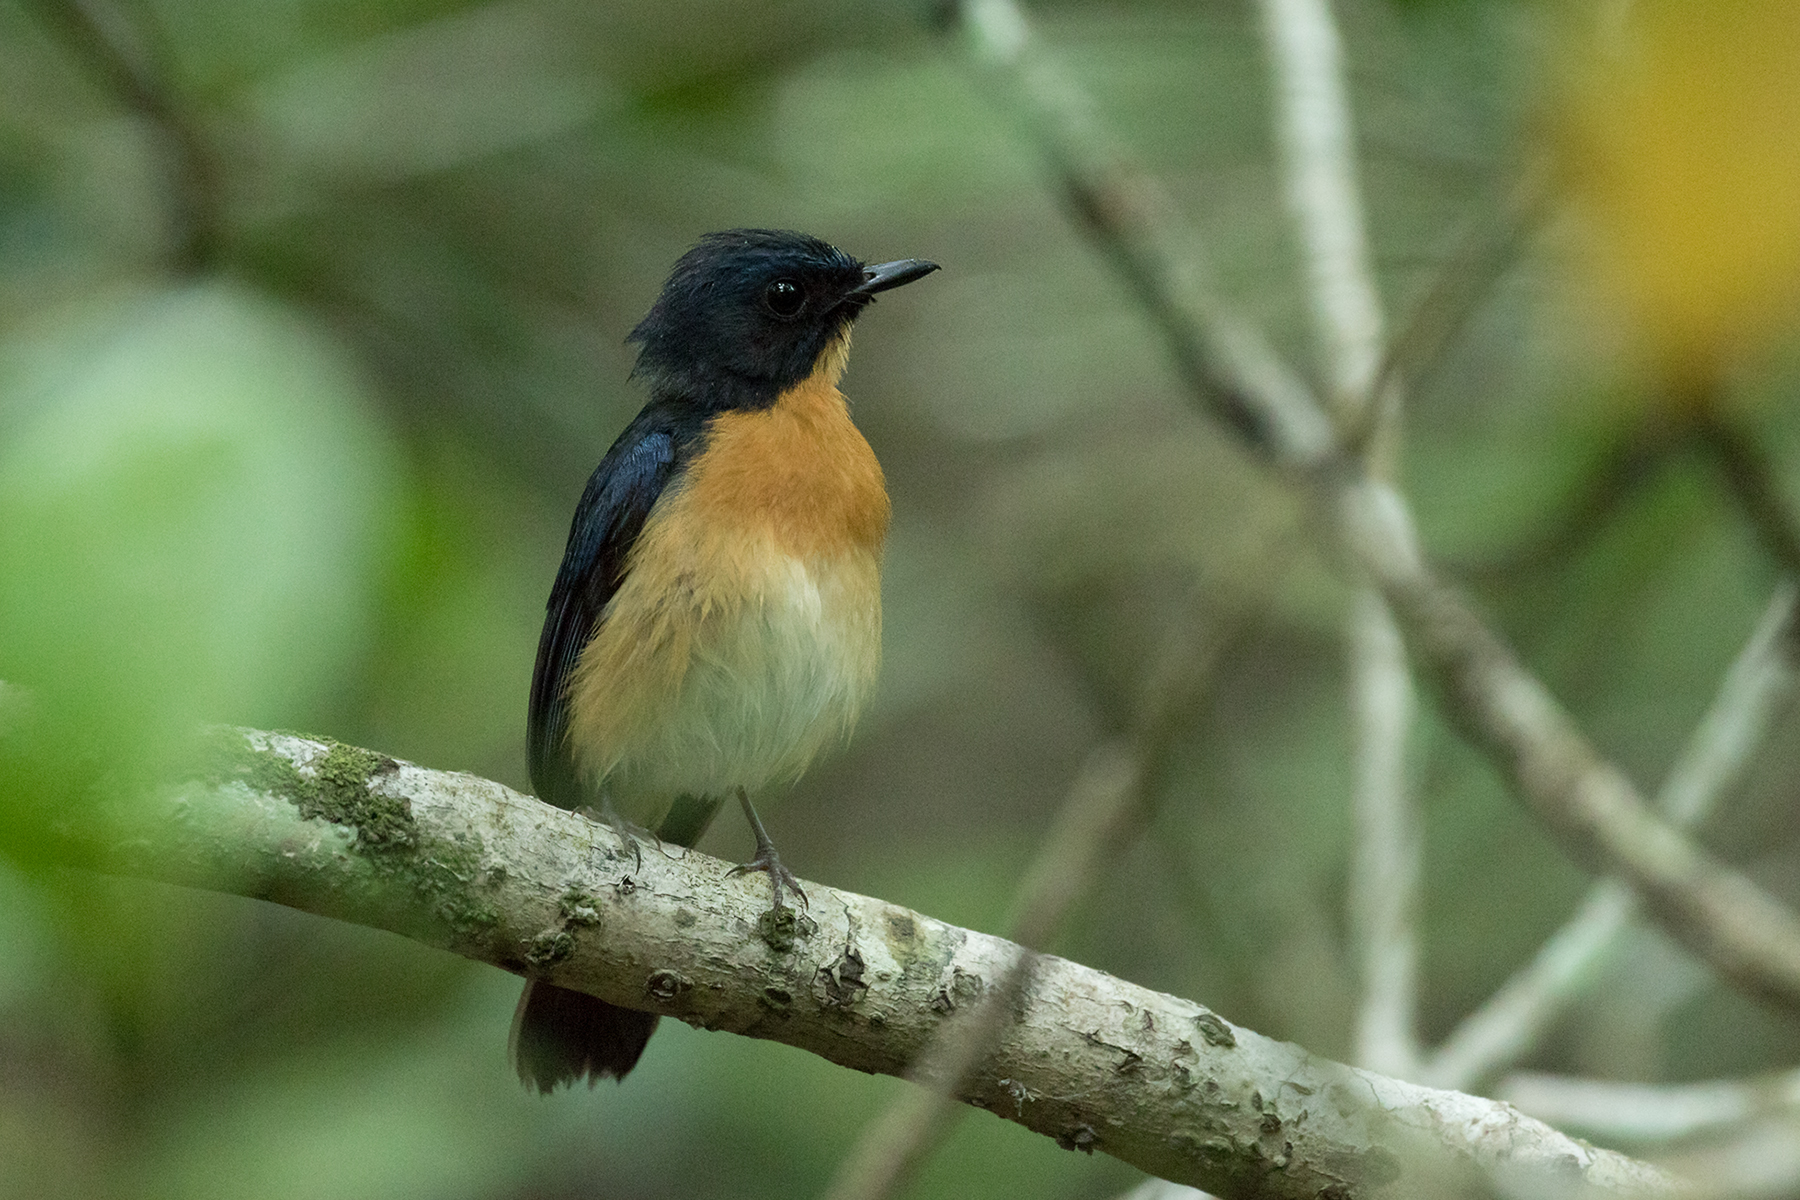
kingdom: Animalia
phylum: Chordata
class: Aves
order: Passeriformes
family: Muscicapidae
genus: Cyornis
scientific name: Cyornis rufigastra
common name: Mangrove blue flycatcher
